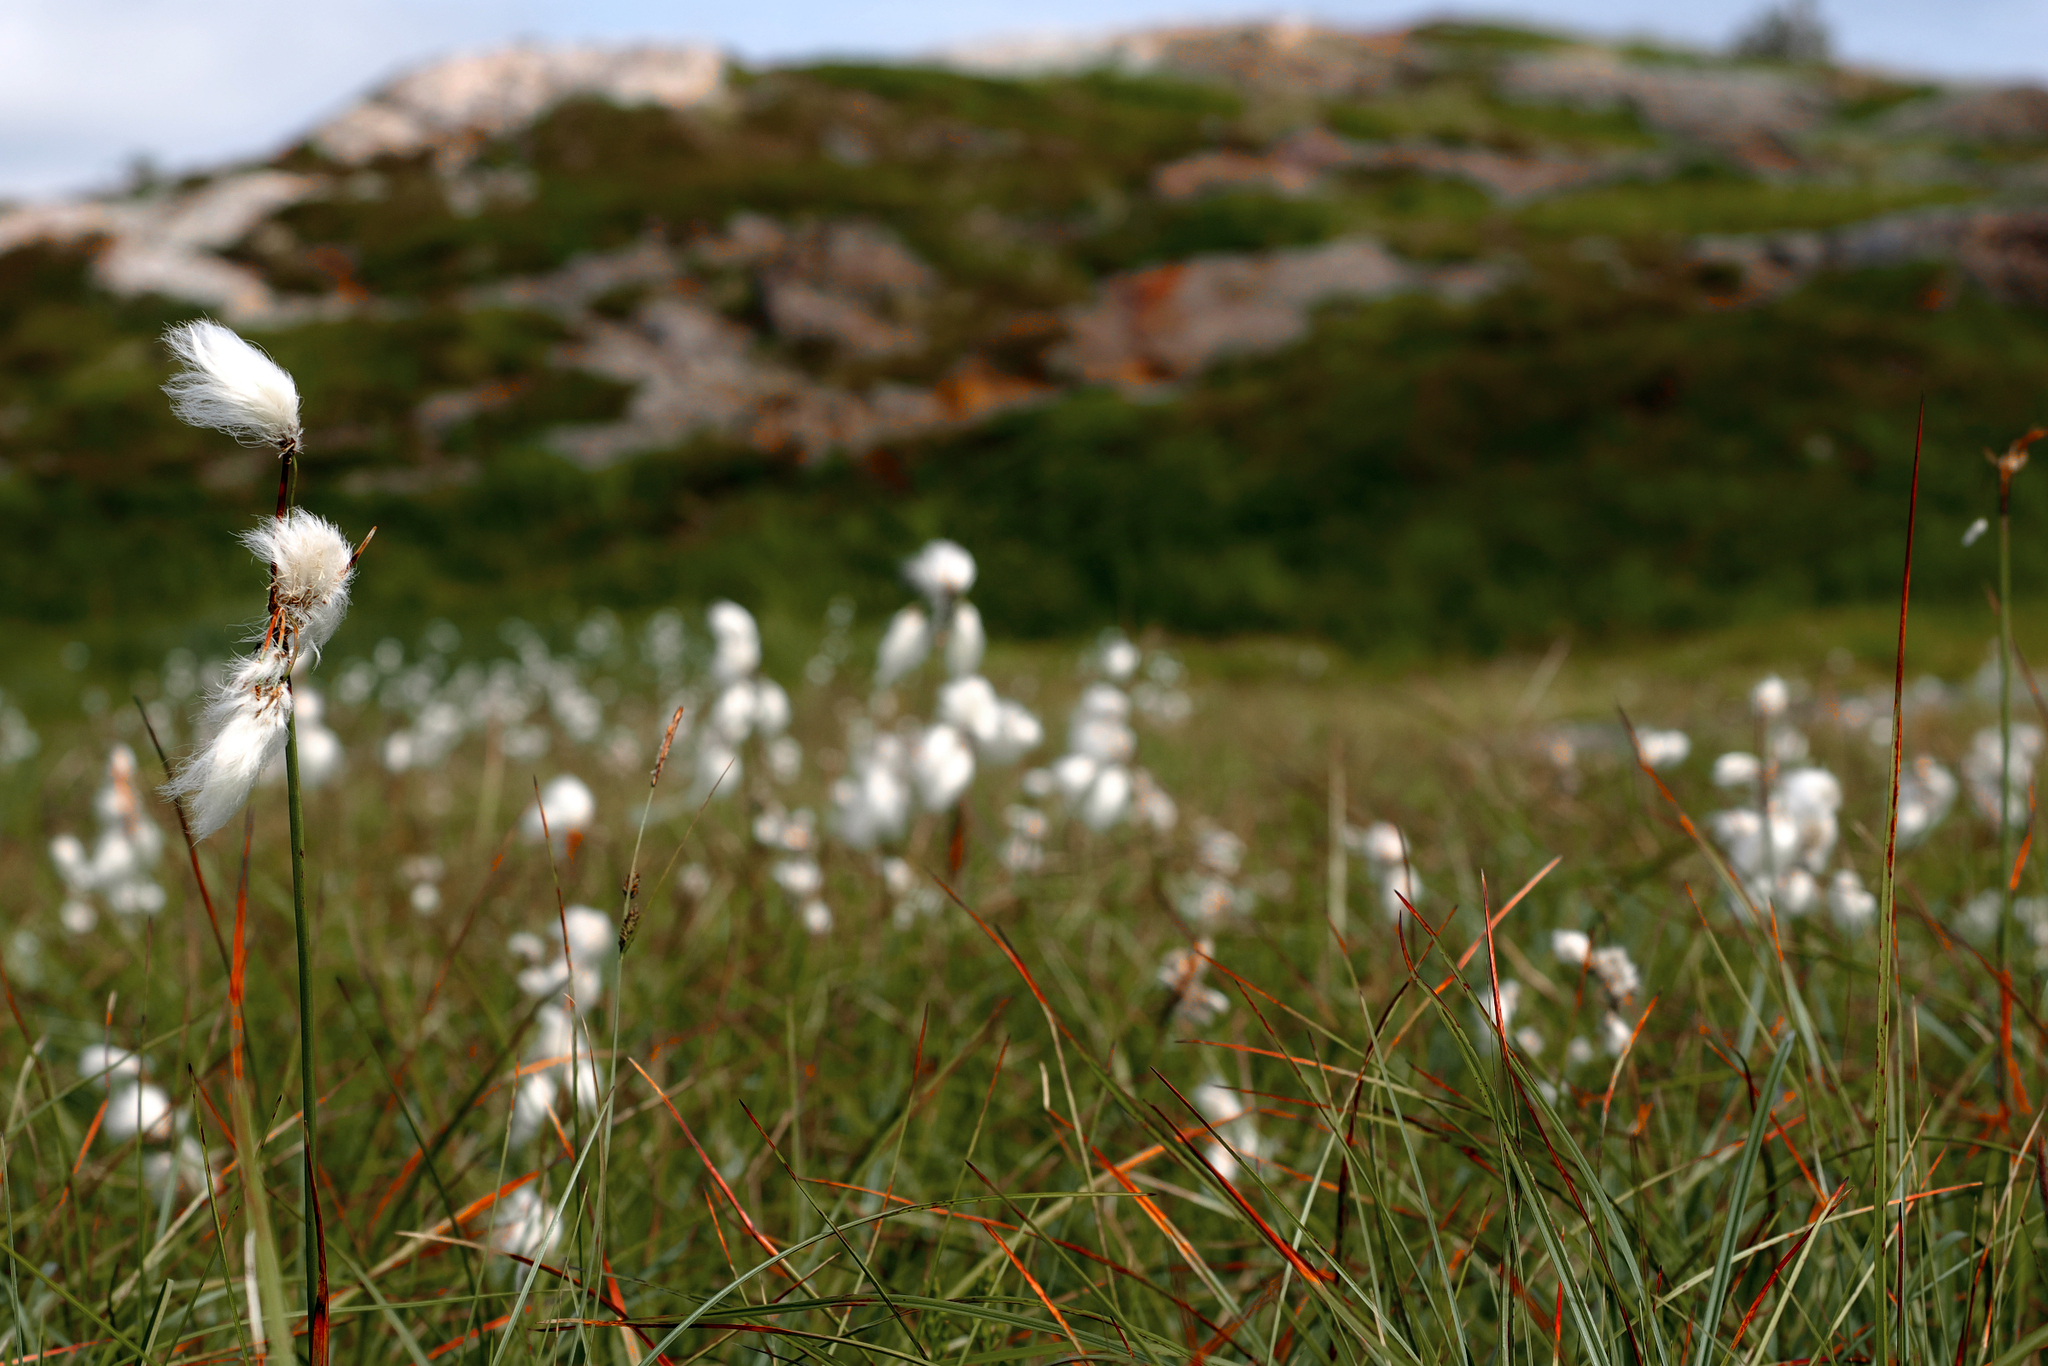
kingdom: Plantae
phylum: Tracheophyta
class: Liliopsida
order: Poales
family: Cyperaceae
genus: Eriophorum
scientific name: Eriophorum angustifolium
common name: Common cottongrass
